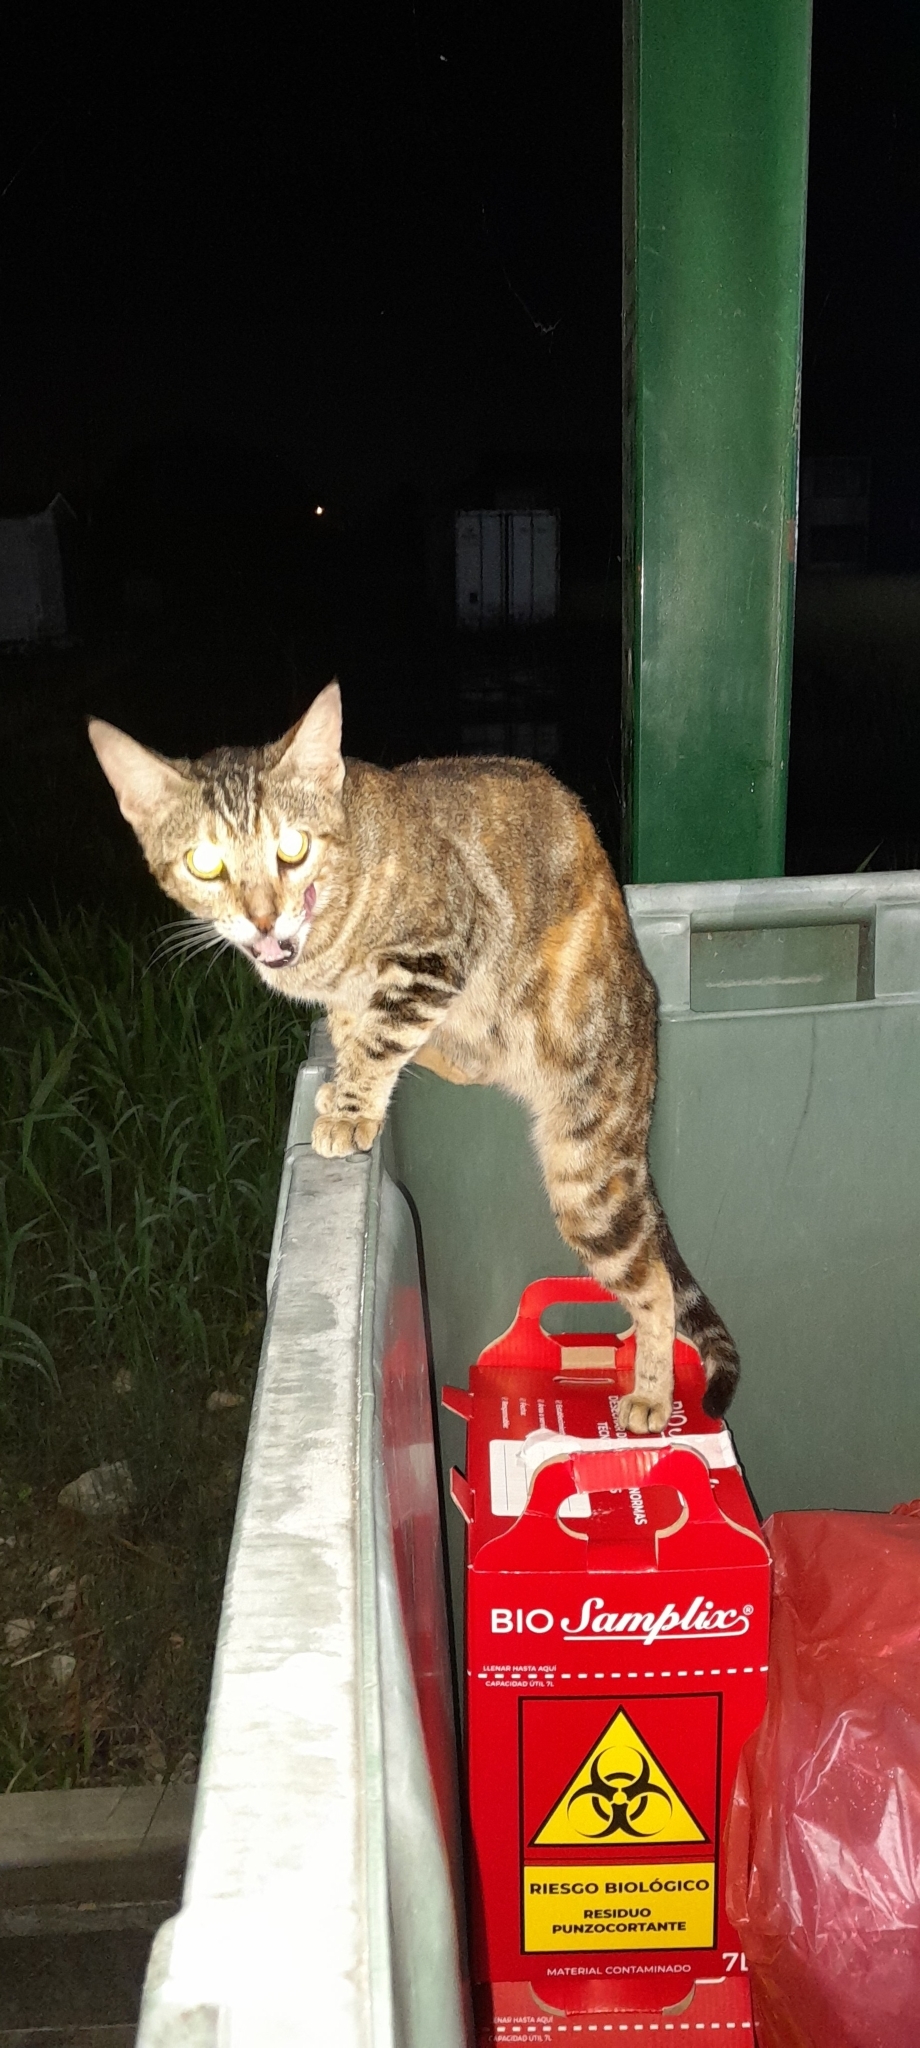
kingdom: Animalia
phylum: Chordata
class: Mammalia
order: Carnivora
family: Felidae
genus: Felis
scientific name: Felis catus
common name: Domestic cat
